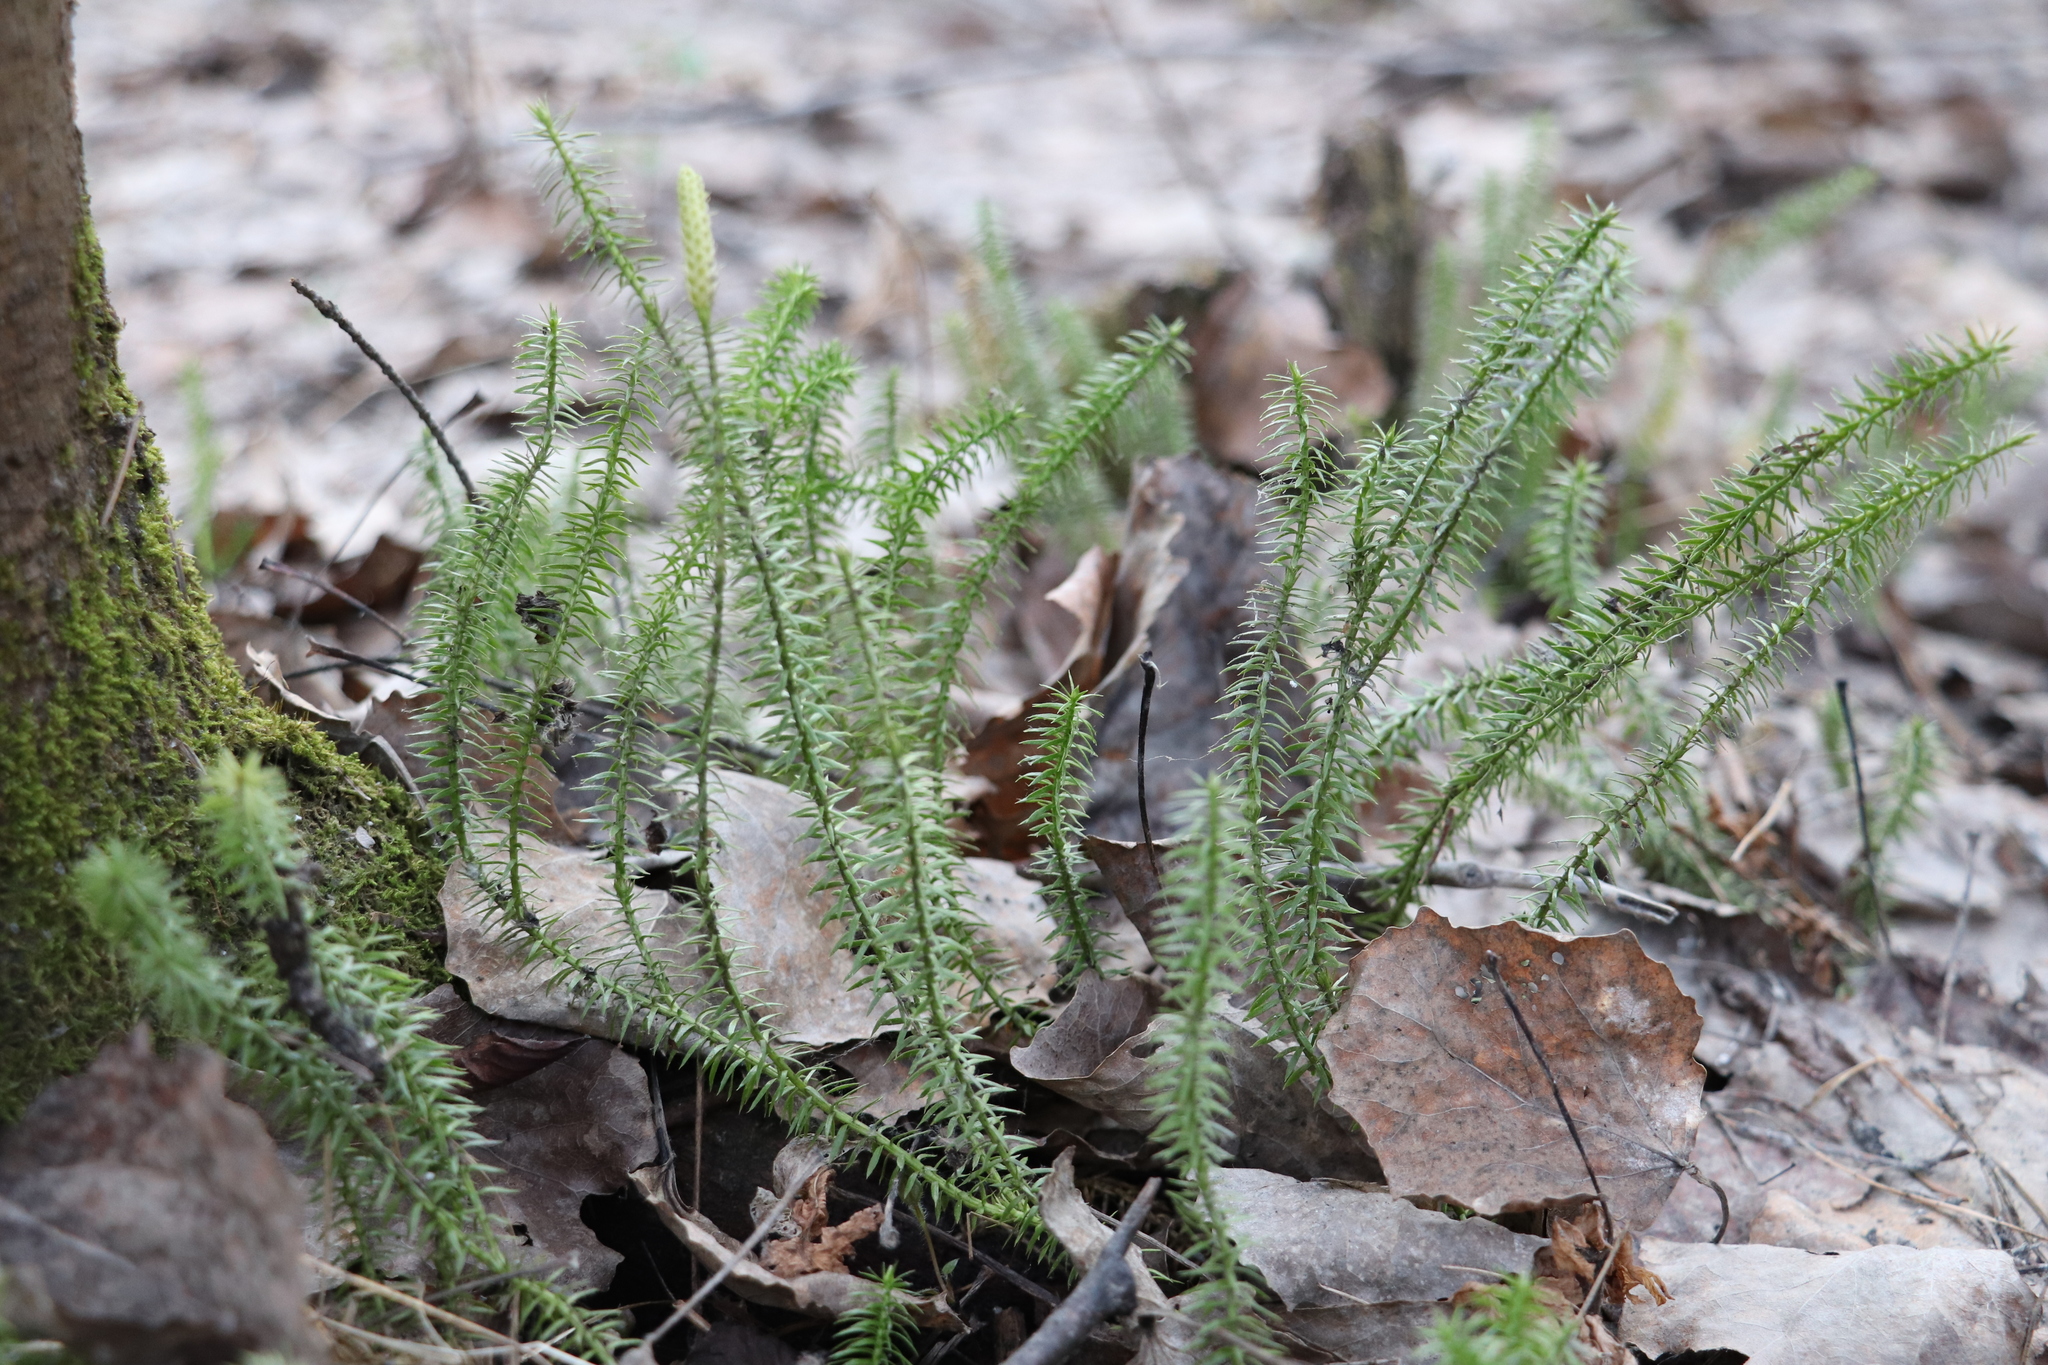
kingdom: Plantae
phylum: Tracheophyta
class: Lycopodiopsida
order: Lycopodiales
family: Lycopodiaceae
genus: Spinulum
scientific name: Spinulum annotinum
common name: Interrupted club-moss
